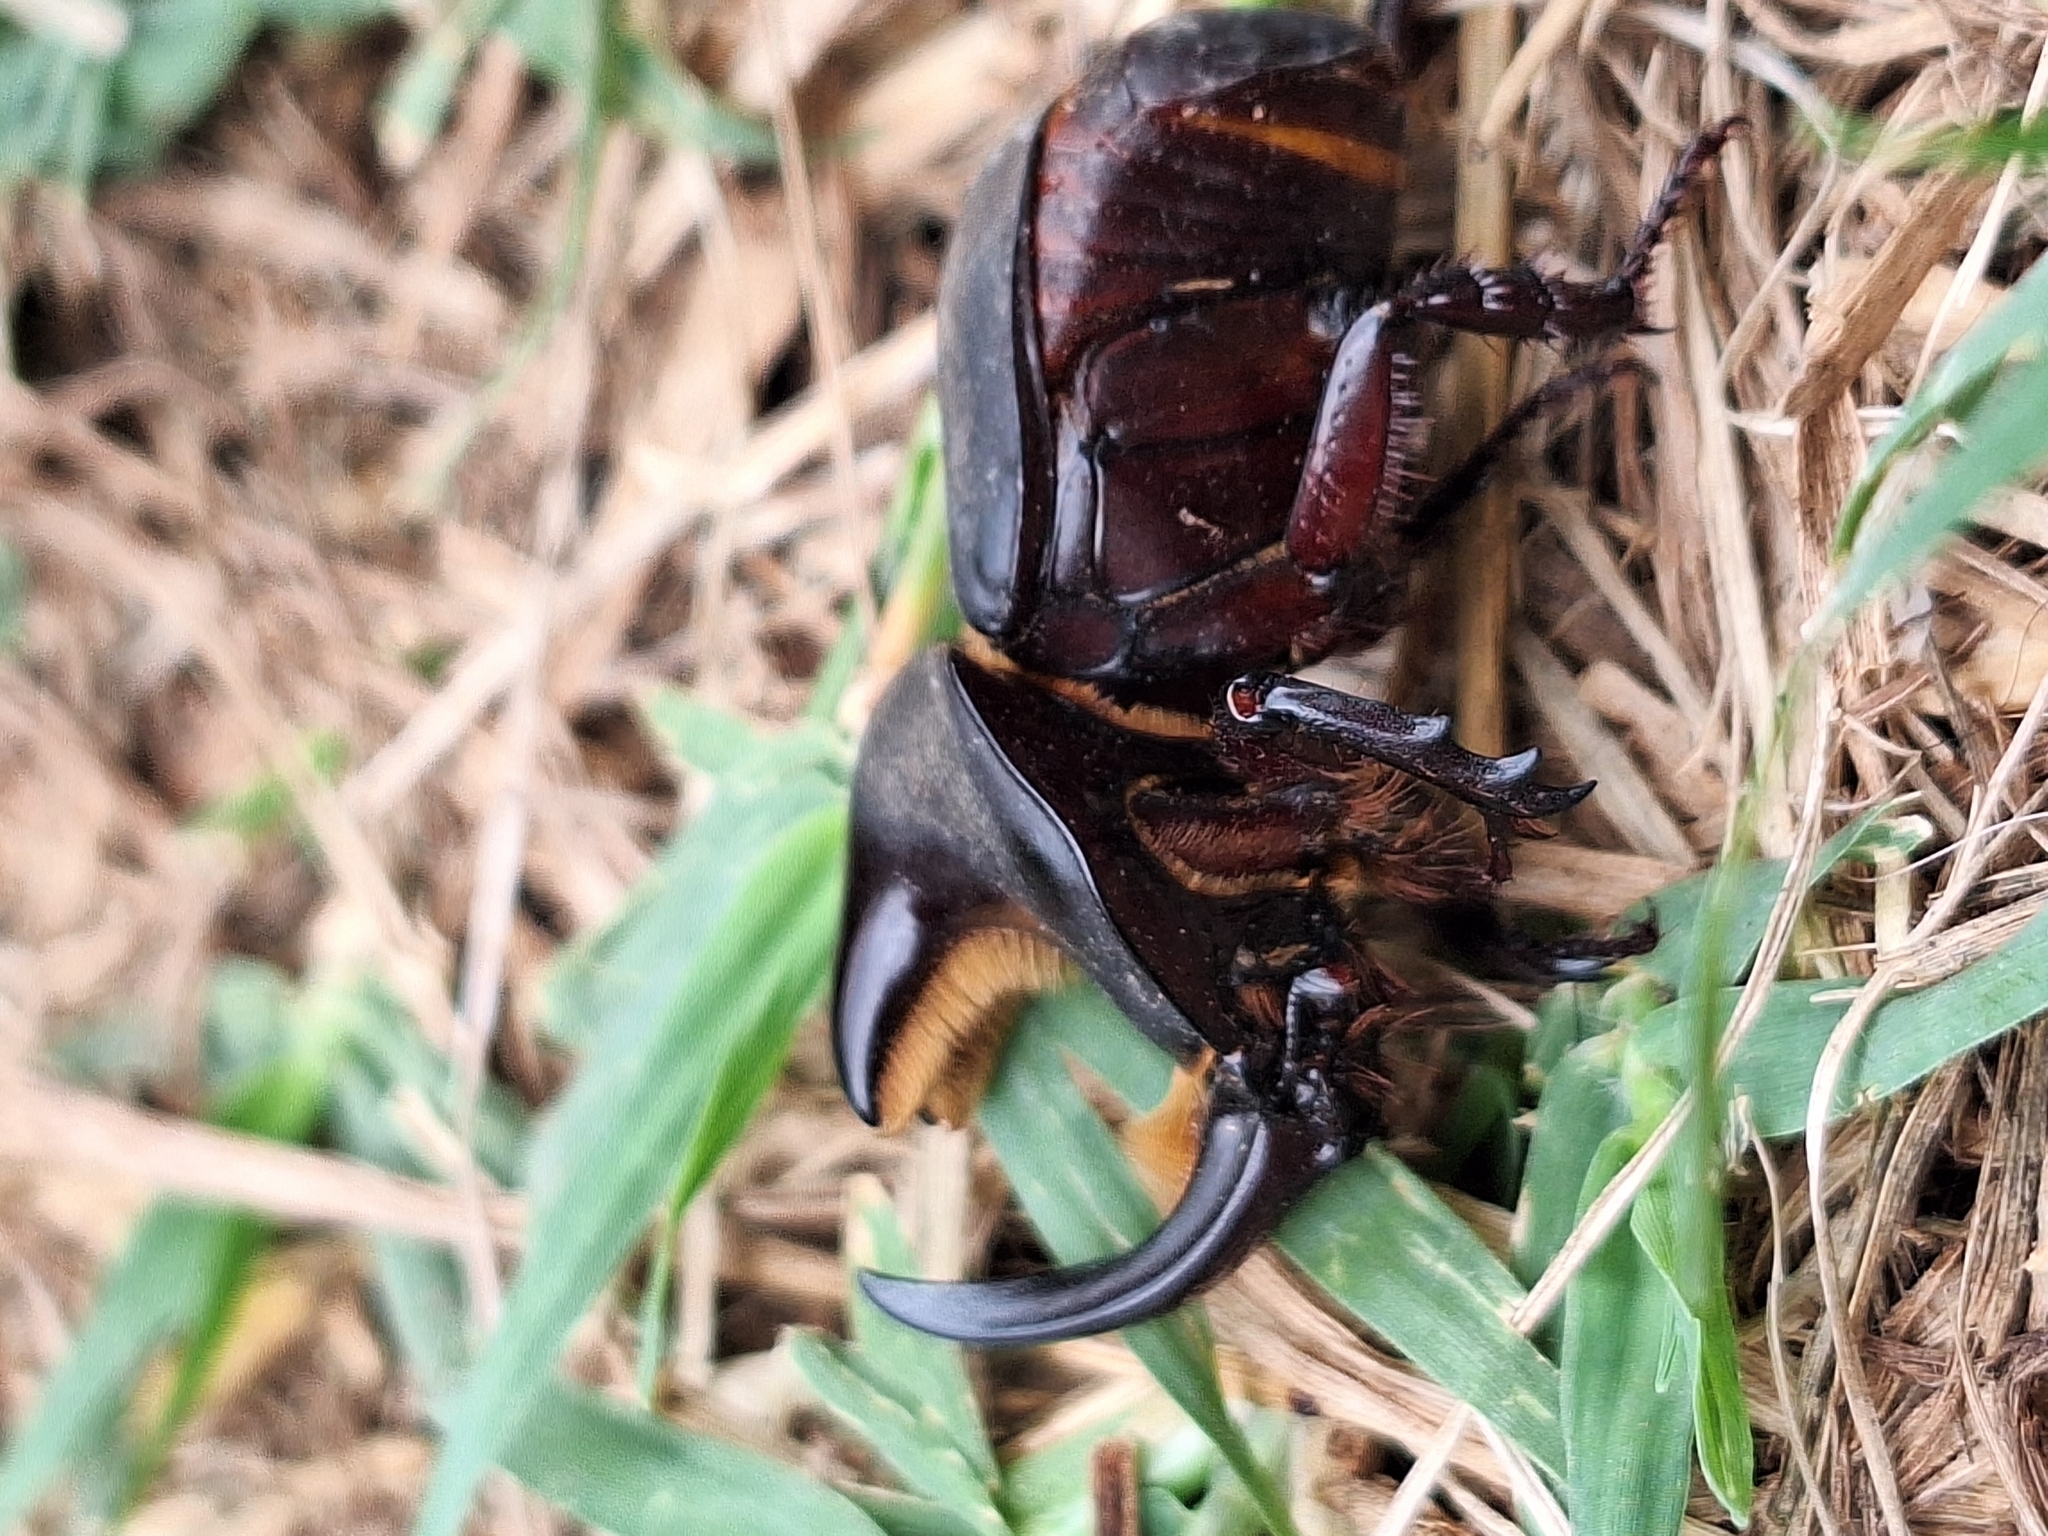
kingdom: Animalia
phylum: Arthropoda
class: Insecta
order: Coleoptera
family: Scarabaeidae
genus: Diloboderus
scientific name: Diloboderus abderus
